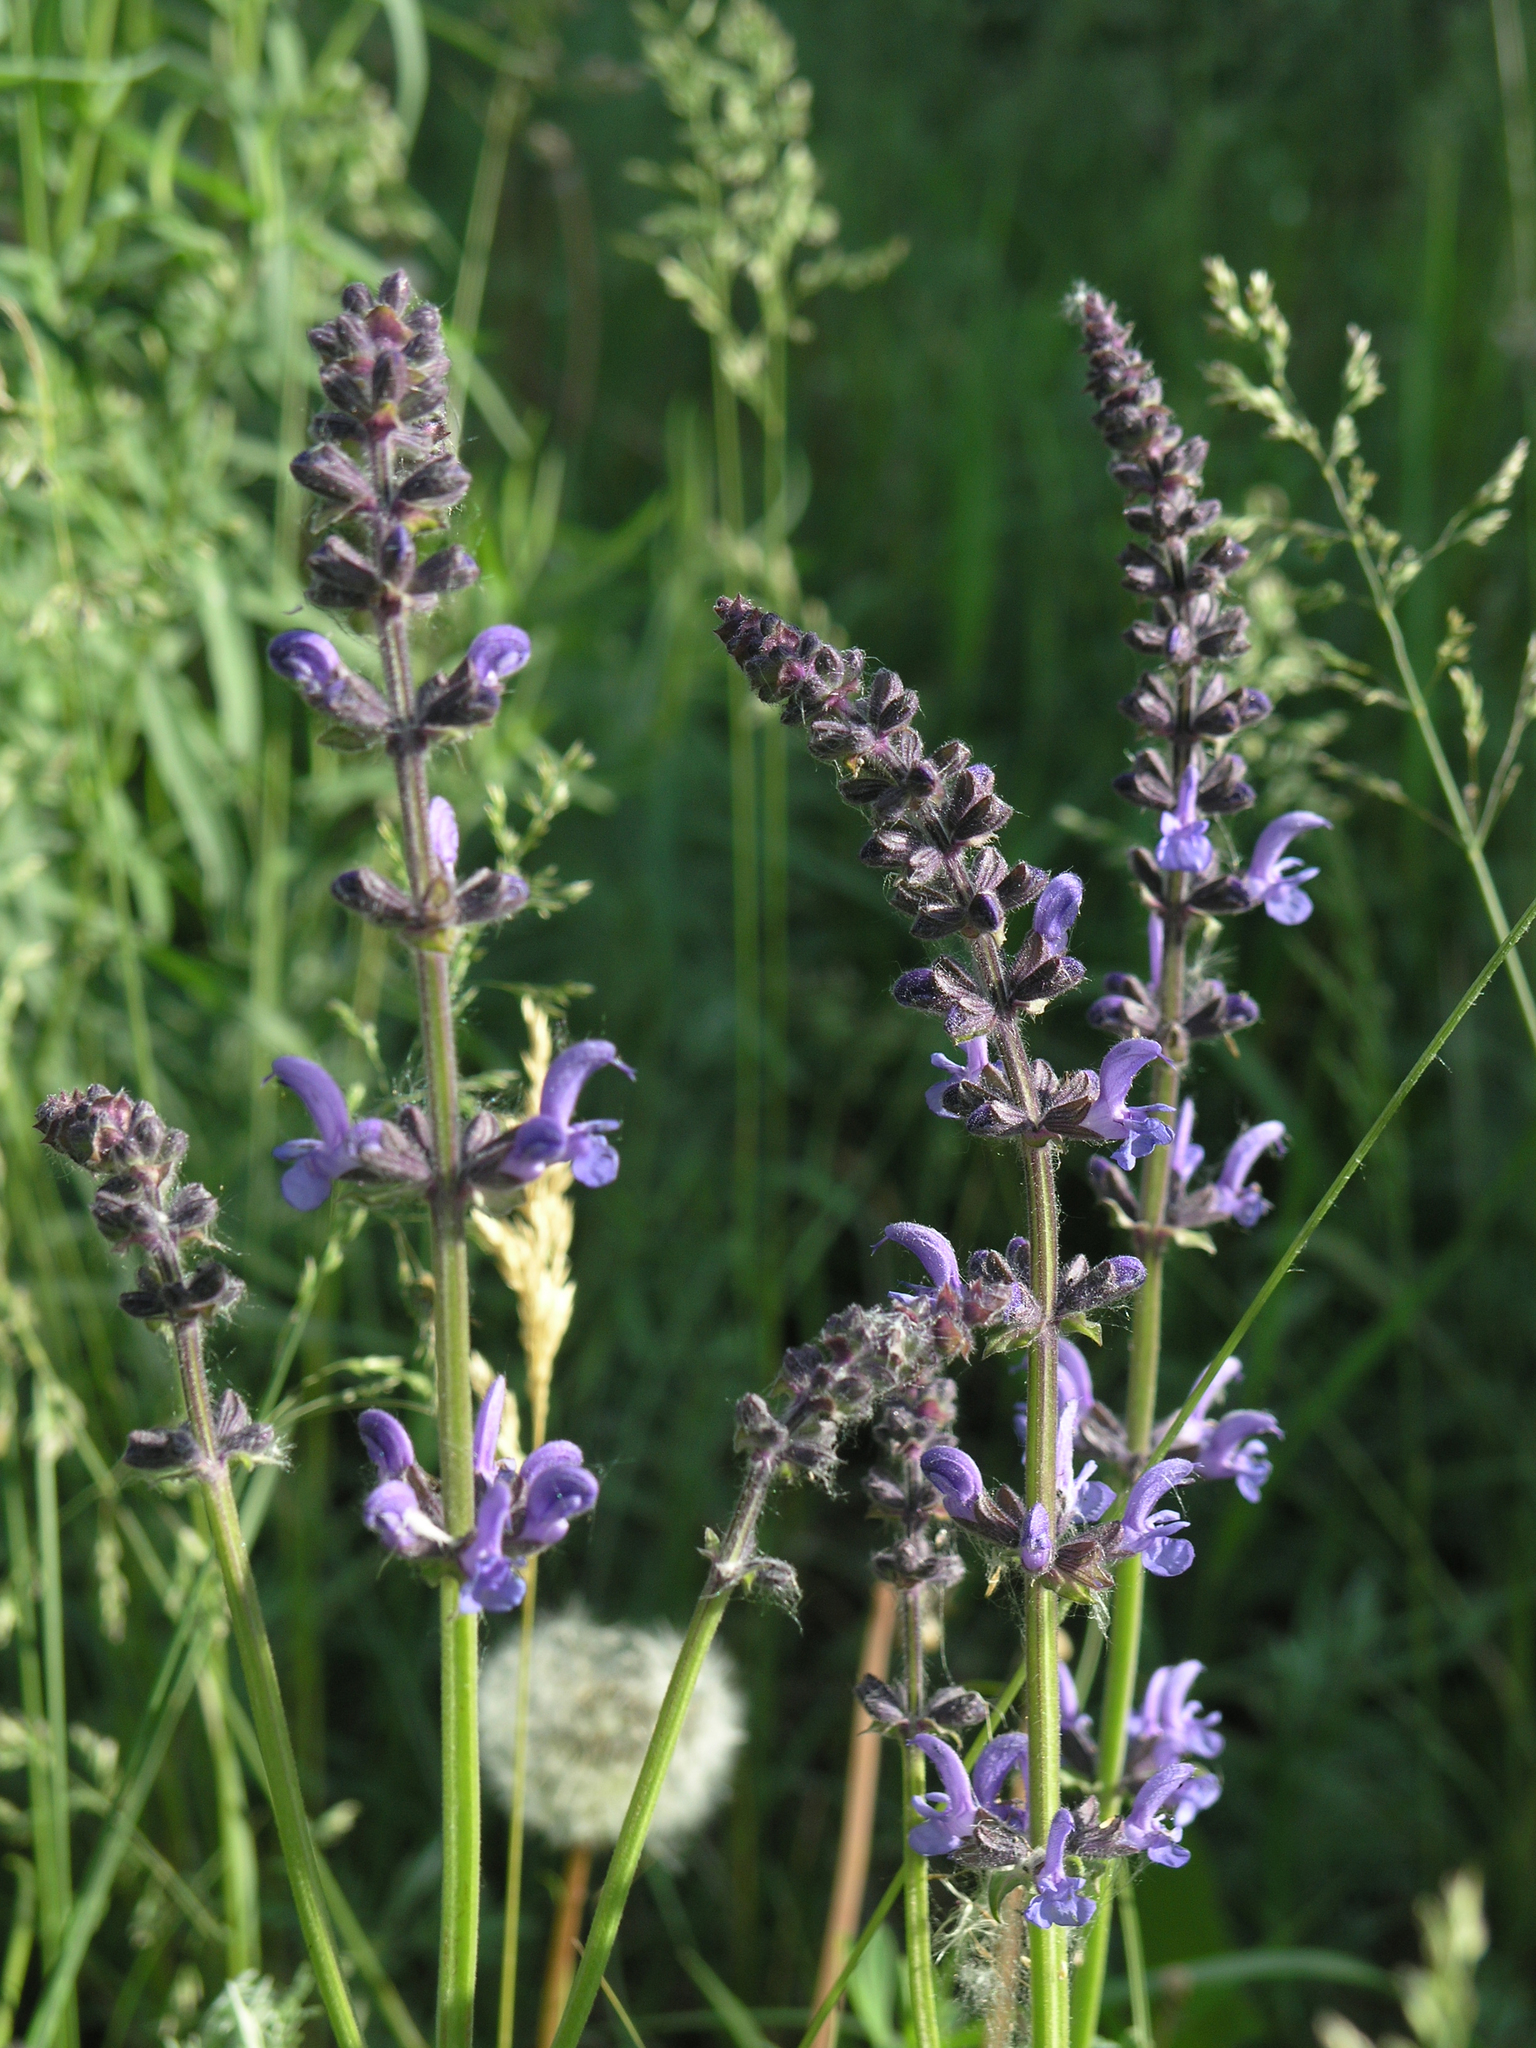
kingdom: Plantae
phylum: Tracheophyta
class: Magnoliopsida
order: Lamiales
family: Lamiaceae
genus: Salvia
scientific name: Salvia dumetorum
